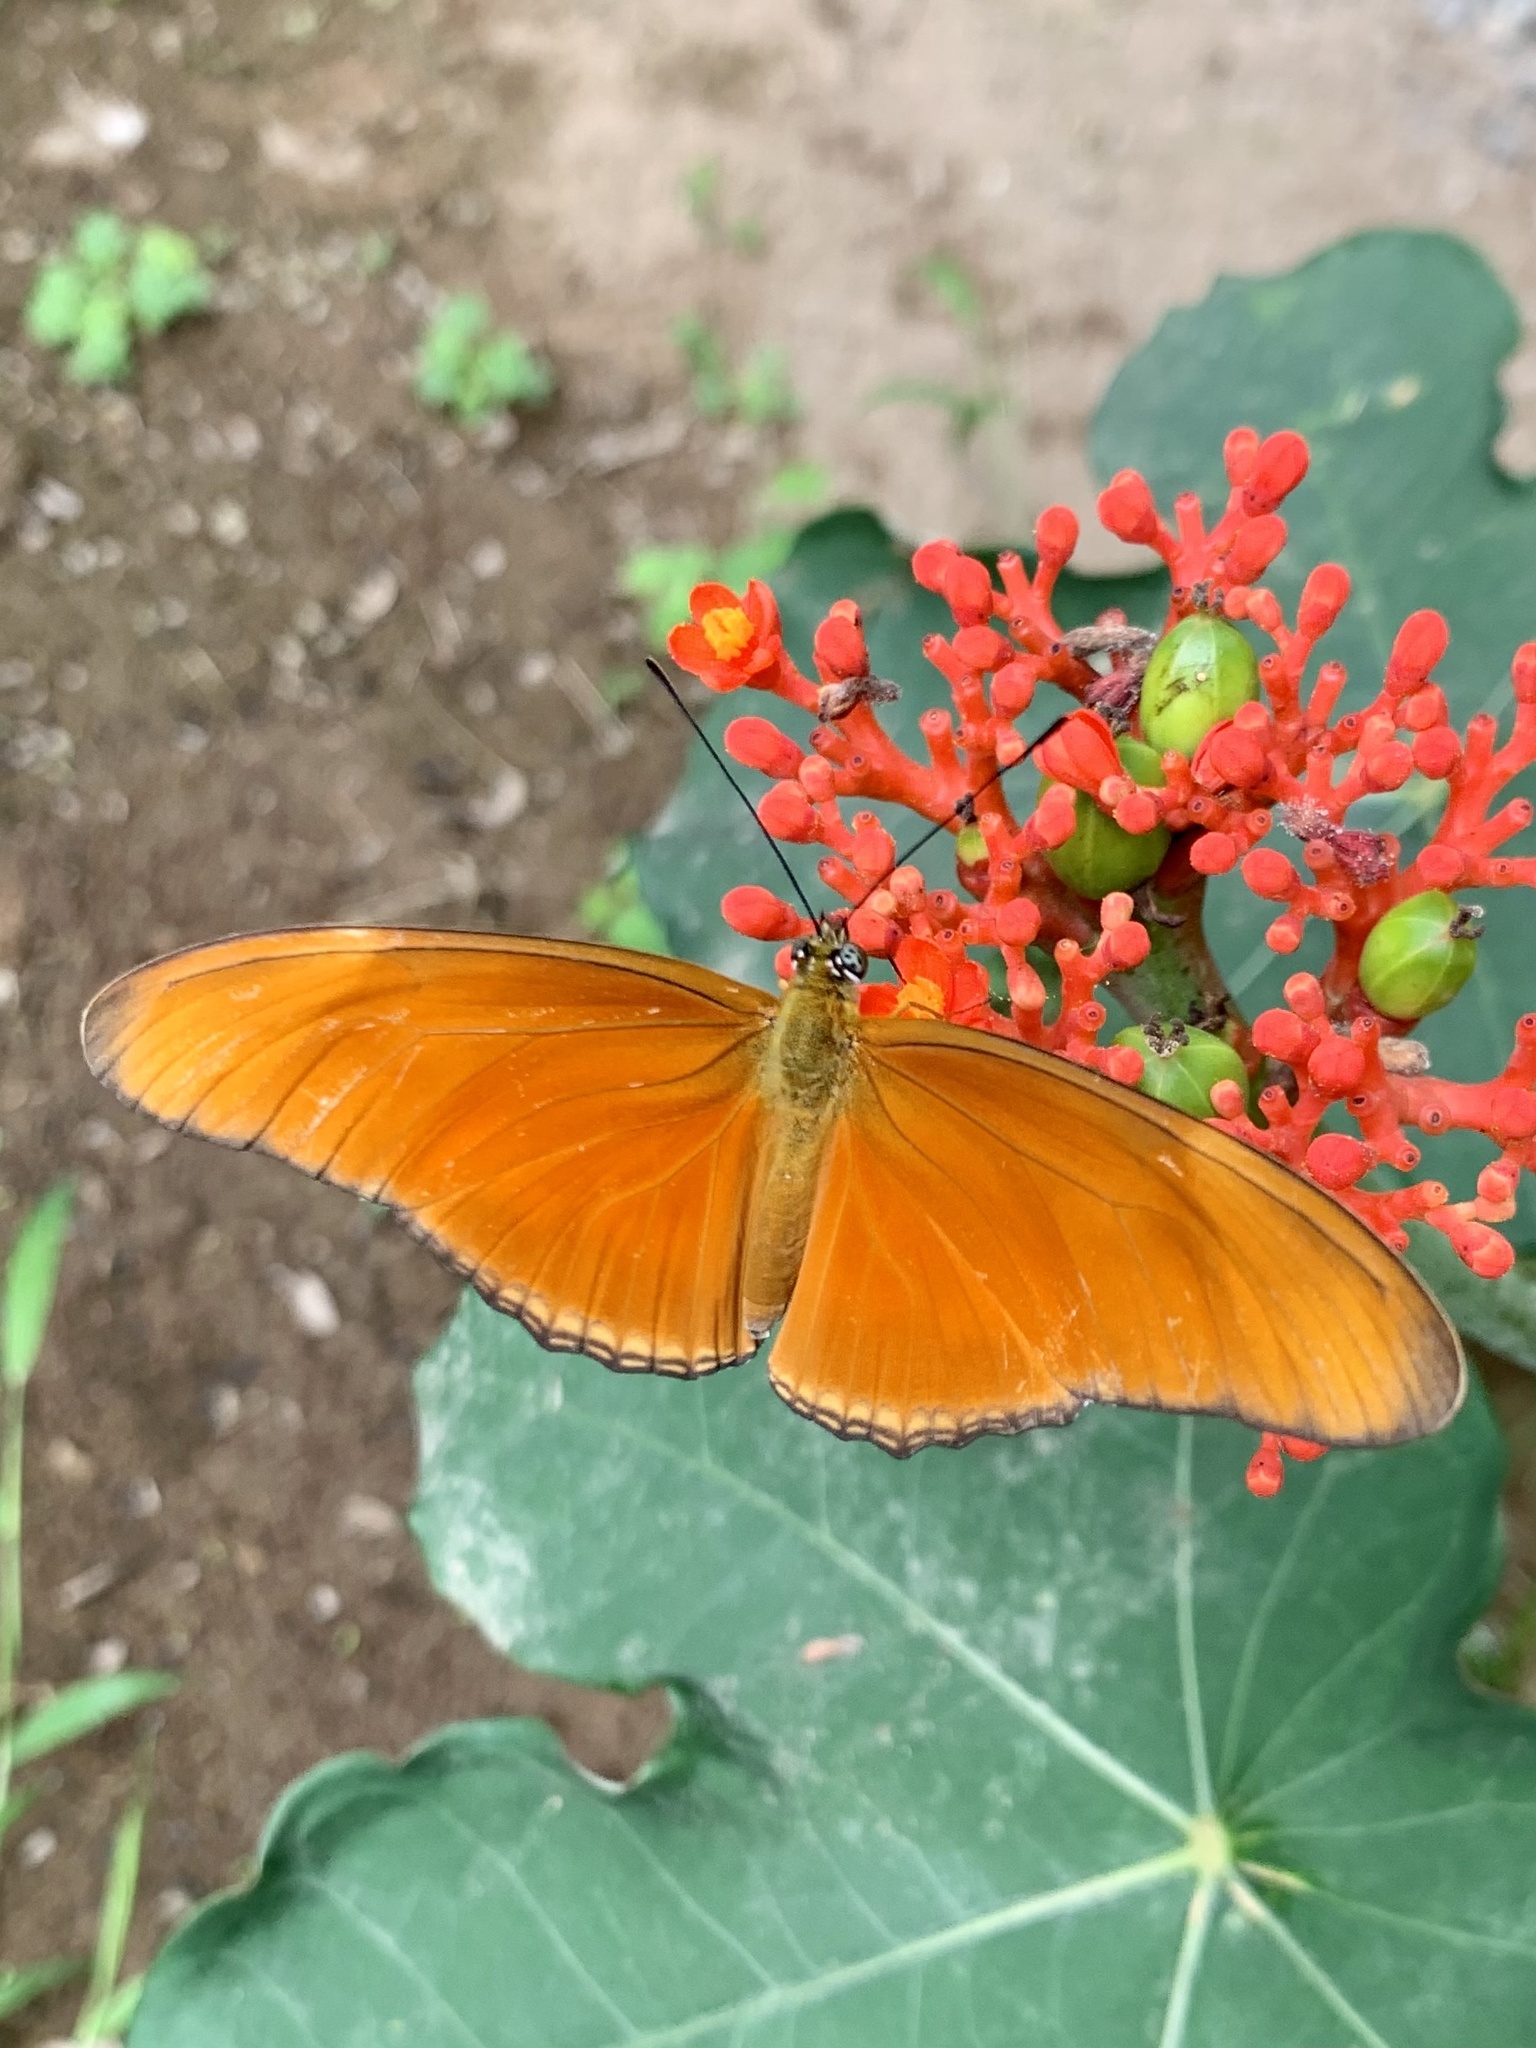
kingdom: Animalia
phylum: Arthropoda
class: Insecta
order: Lepidoptera
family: Nymphalidae
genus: Dryas
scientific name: Dryas iulia
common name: Flambeau
